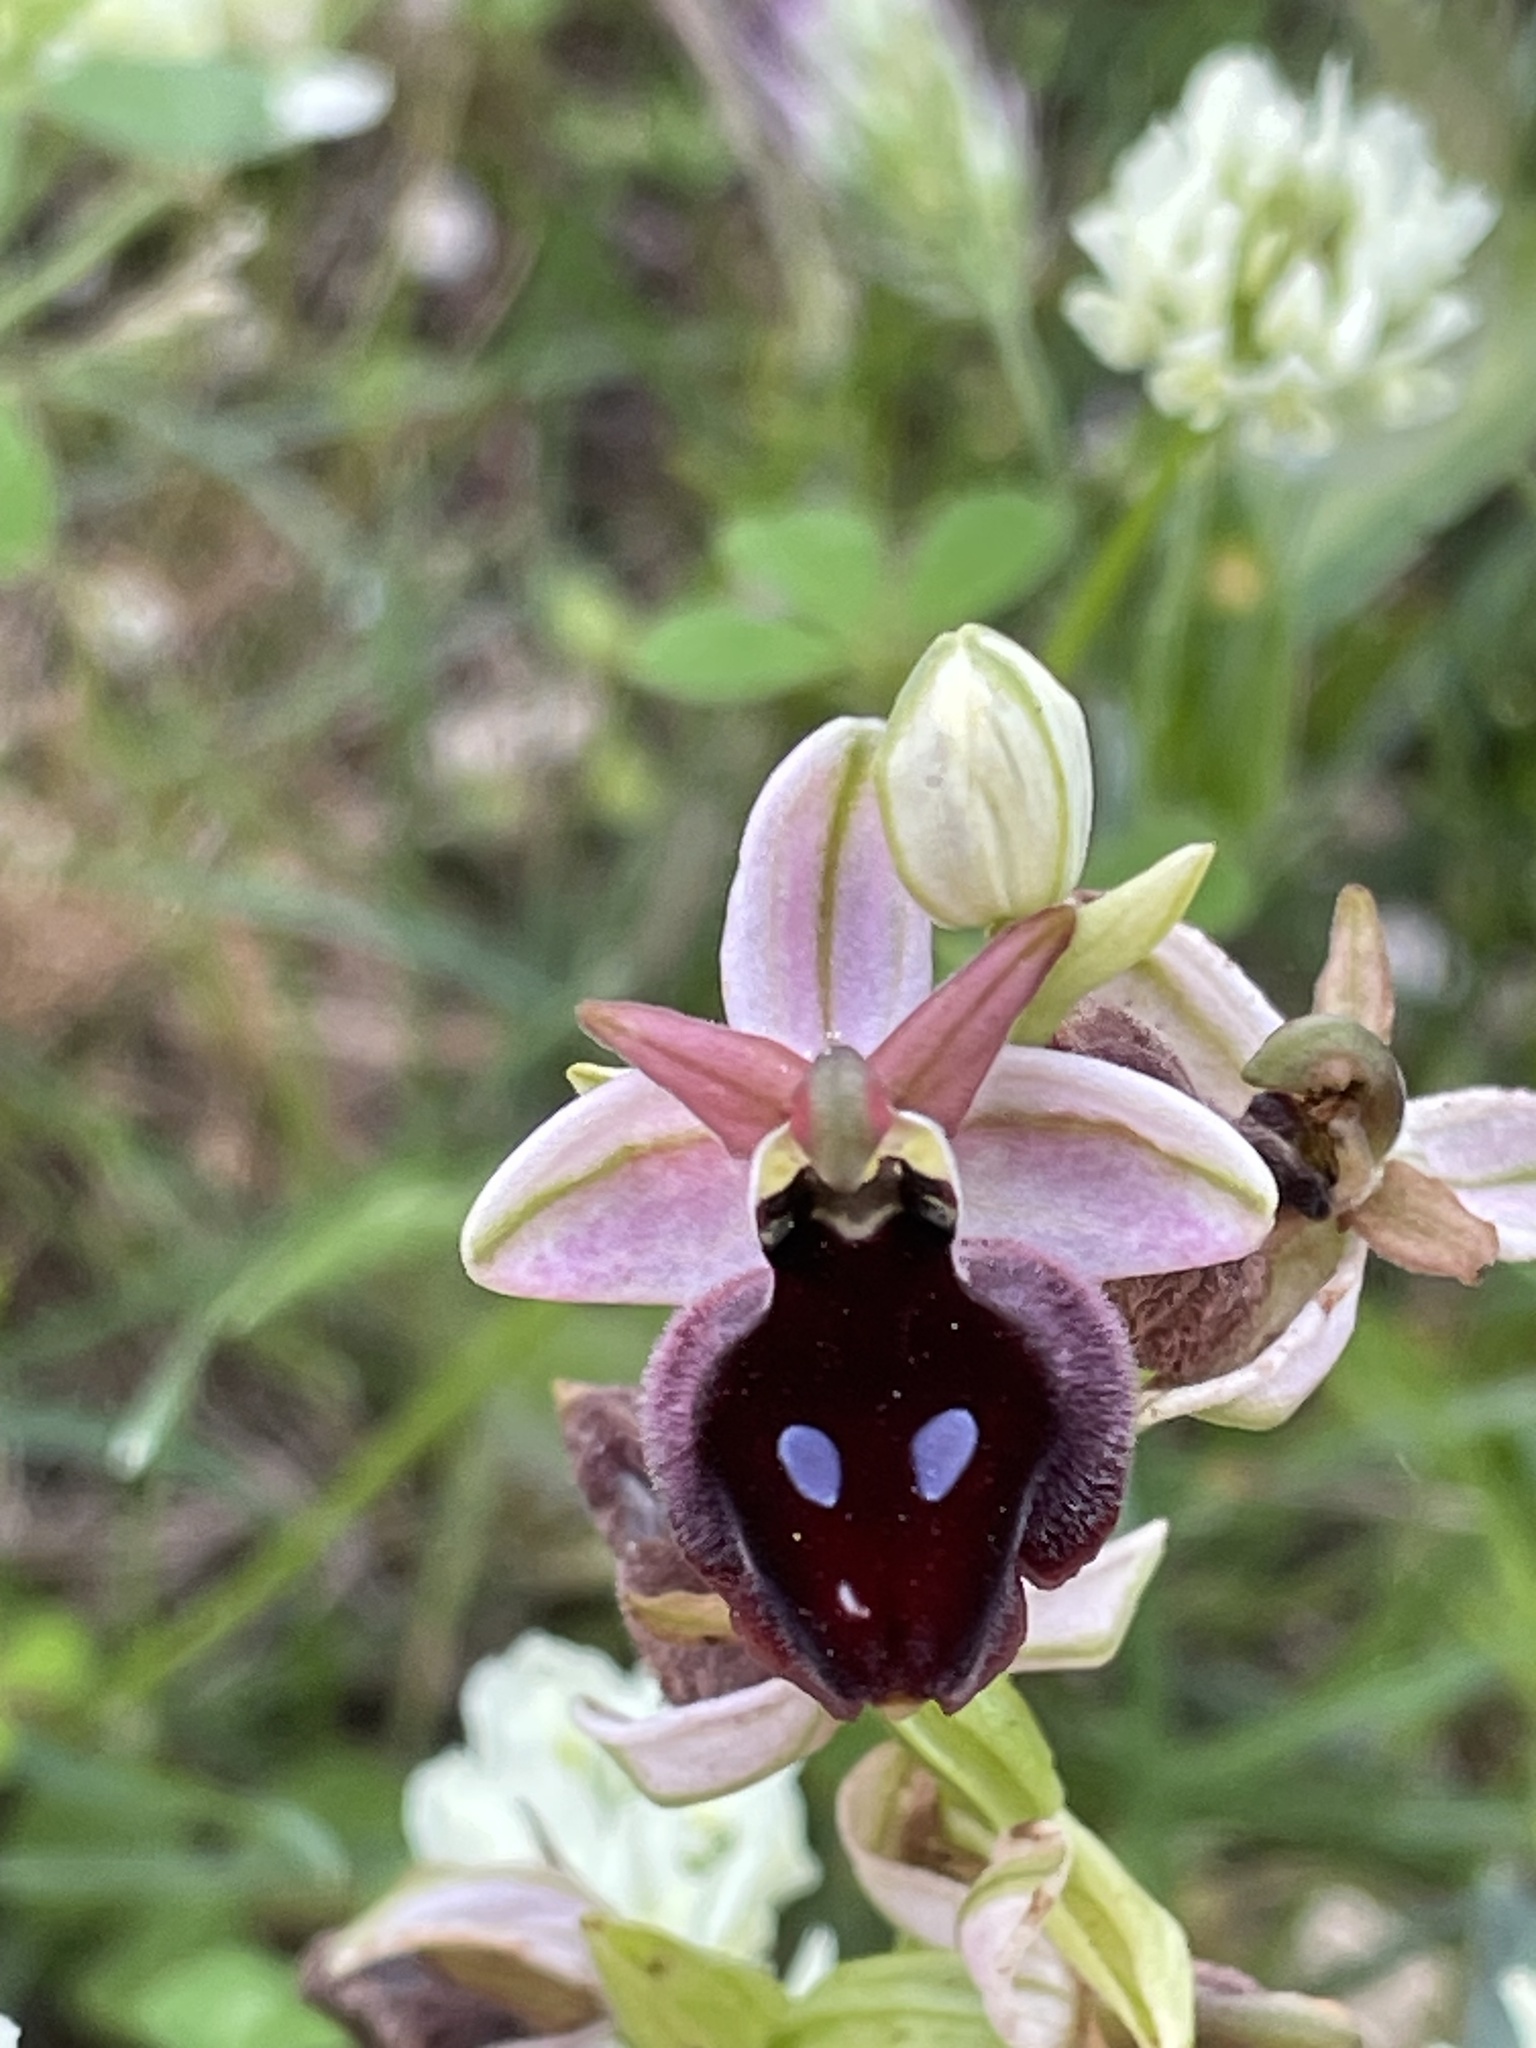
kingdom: Plantae
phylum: Tracheophyta
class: Liliopsida
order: Asparagales
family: Orchidaceae
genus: Ophrys
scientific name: Ophrys ferrum-equinum
